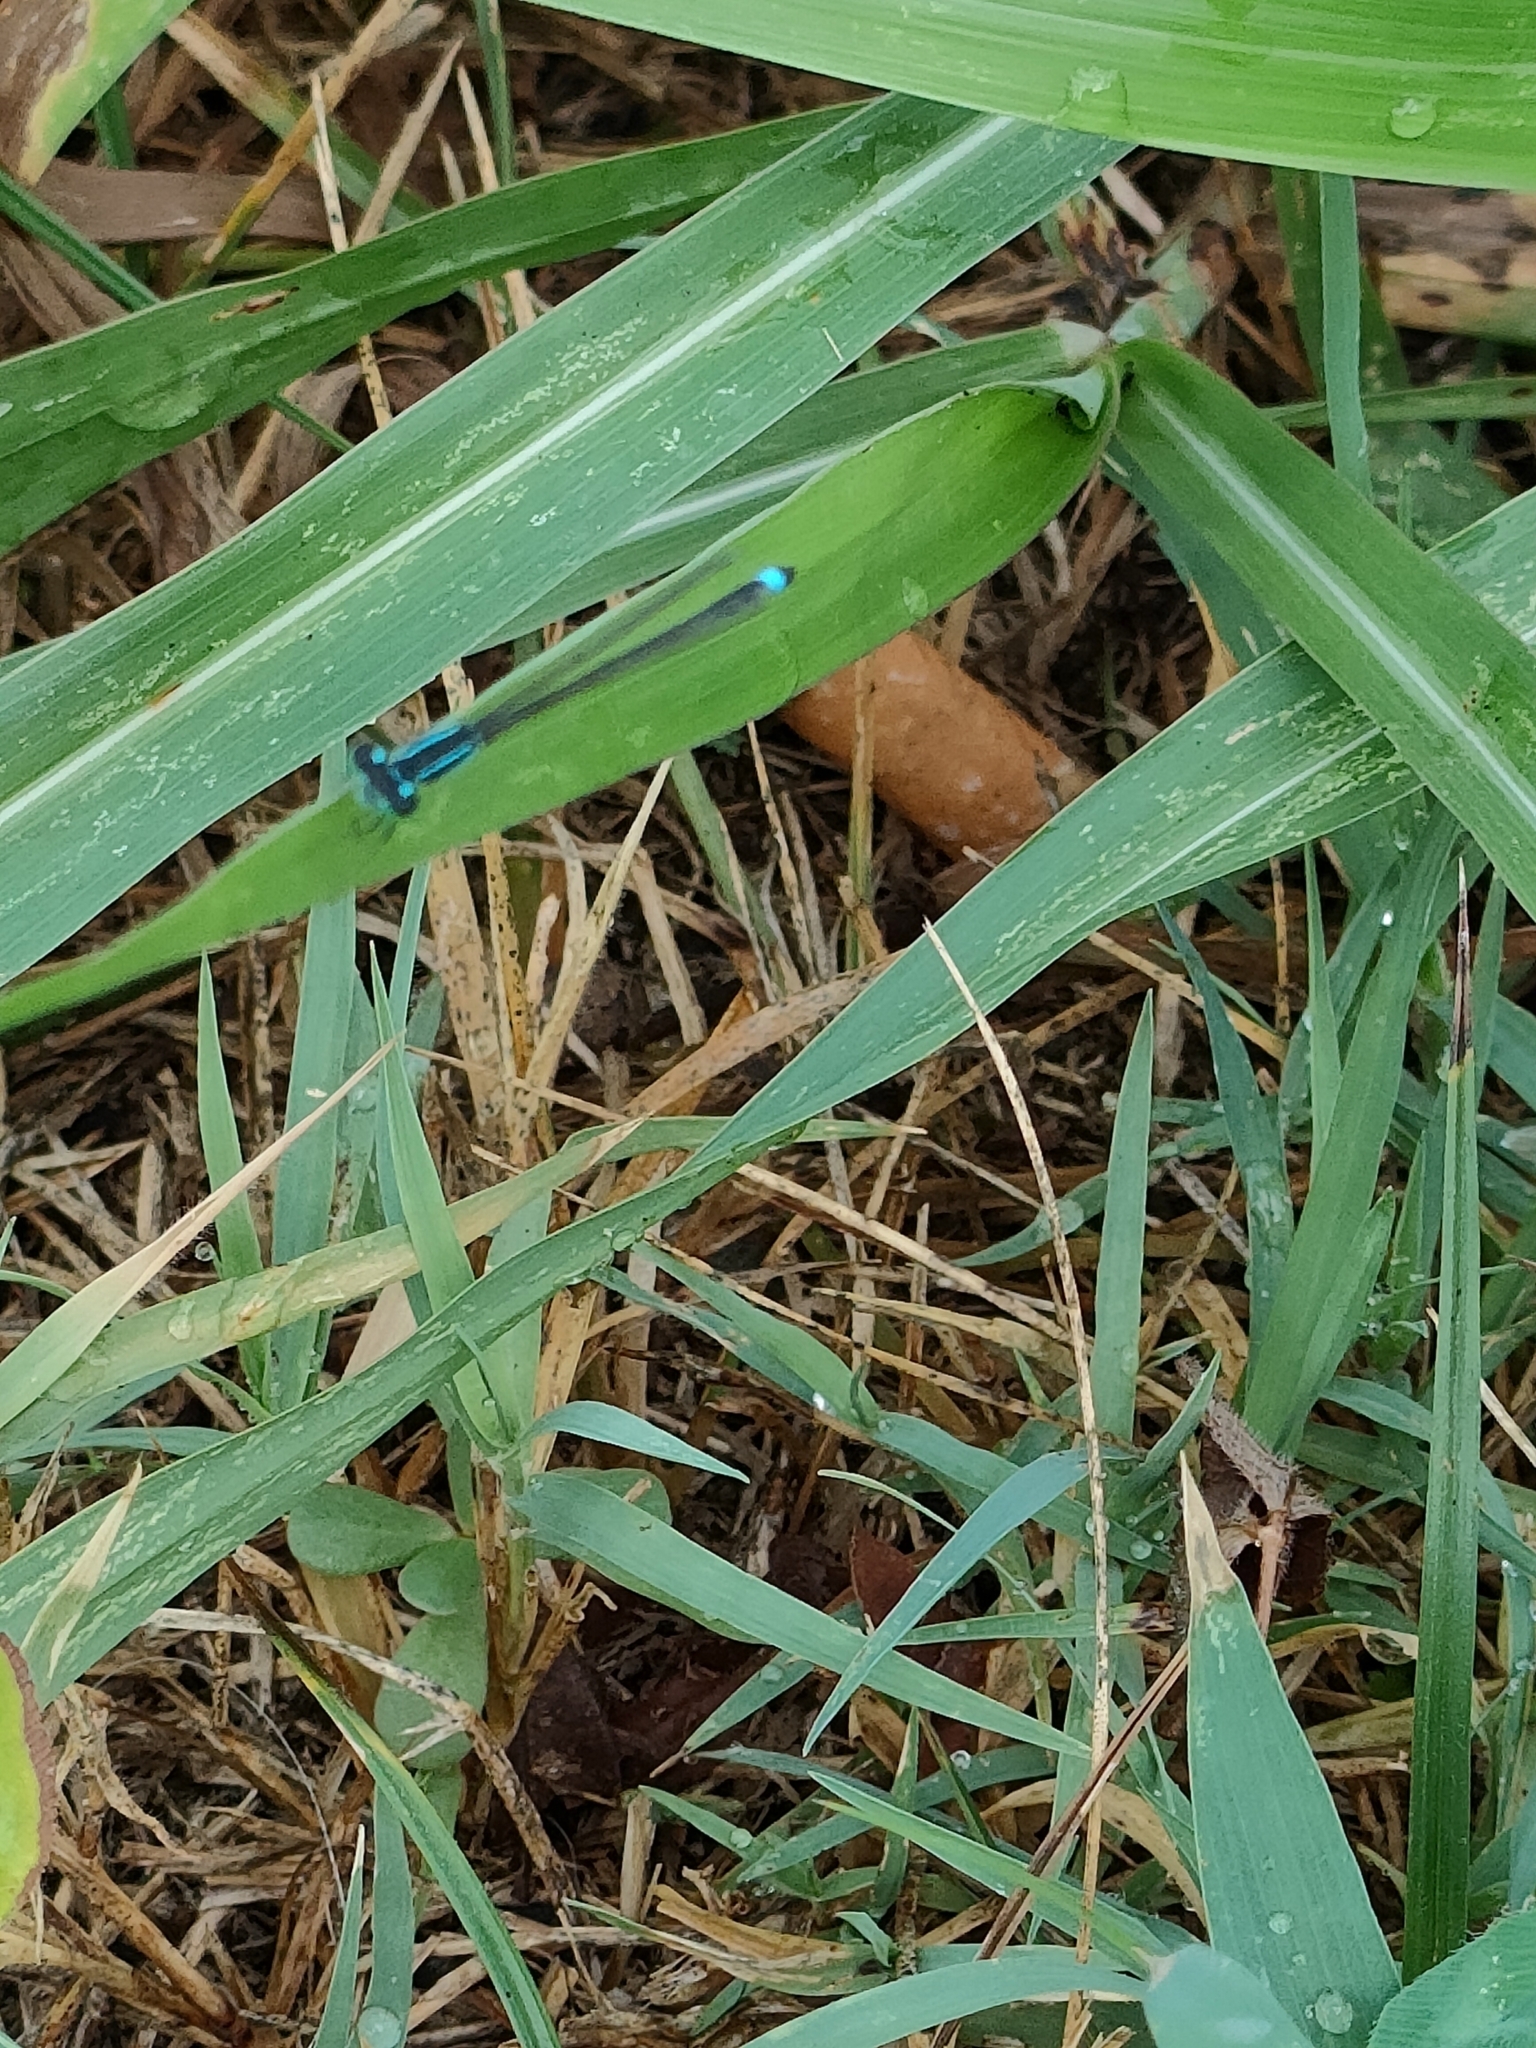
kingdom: Animalia
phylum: Arthropoda
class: Insecta
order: Odonata
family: Coenagrionidae
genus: Ischnura
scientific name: Ischnura elegans
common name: Blue-tailed damselfly
